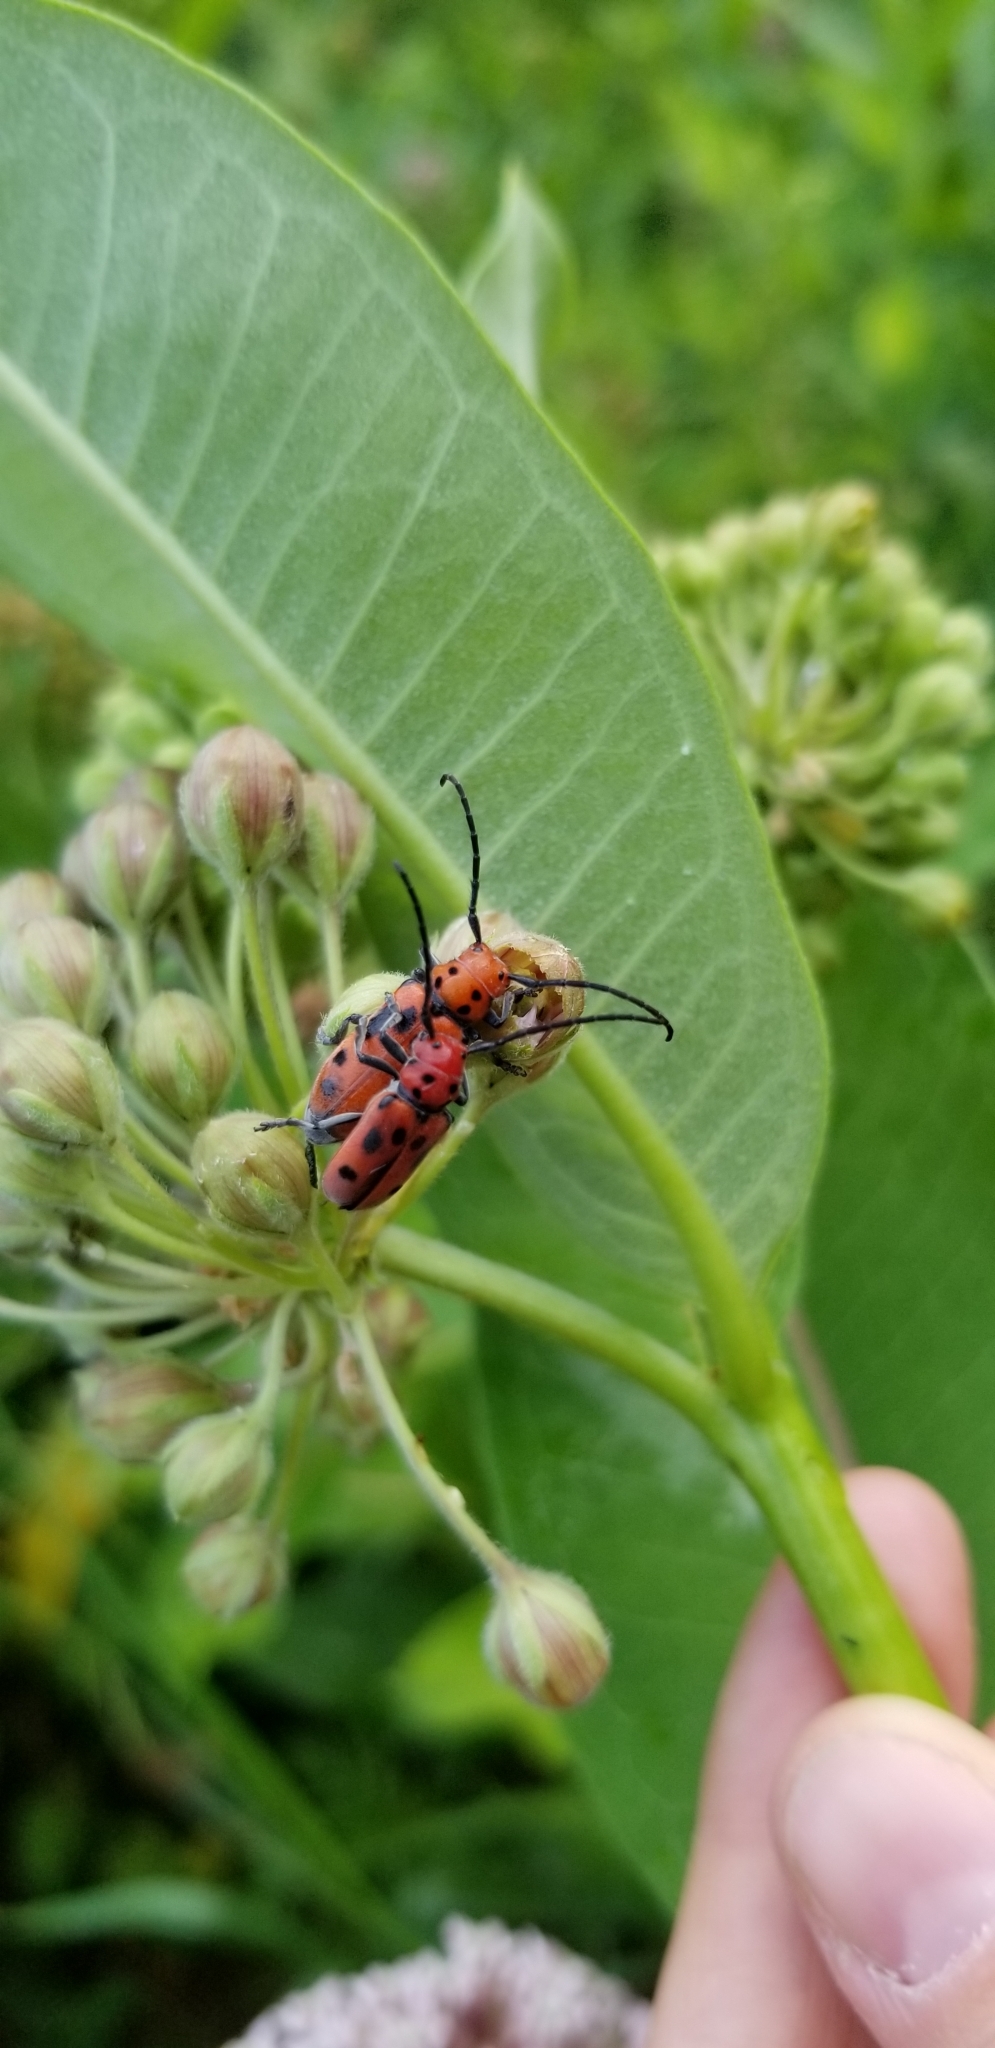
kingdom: Animalia
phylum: Arthropoda
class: Insecta
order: Coleoptera
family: Cerambycidae
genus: Tetraopes
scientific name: Tetraopes tetrophthalmus
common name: Red milkweed beetle
